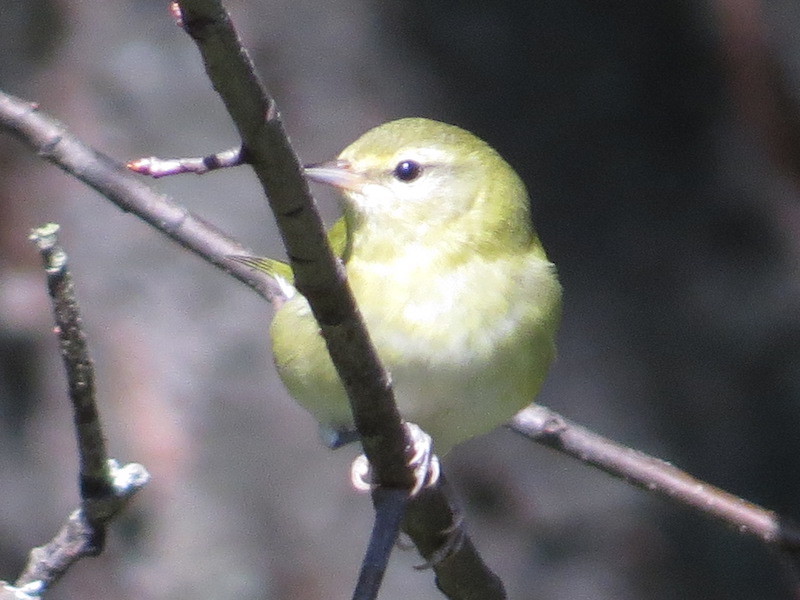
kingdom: Animalia
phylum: Chordata
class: Aves
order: Passeriformes
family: Parulidae
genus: Leiothlypis
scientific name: Leiothlypis peregrina
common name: Tennessee warbler
